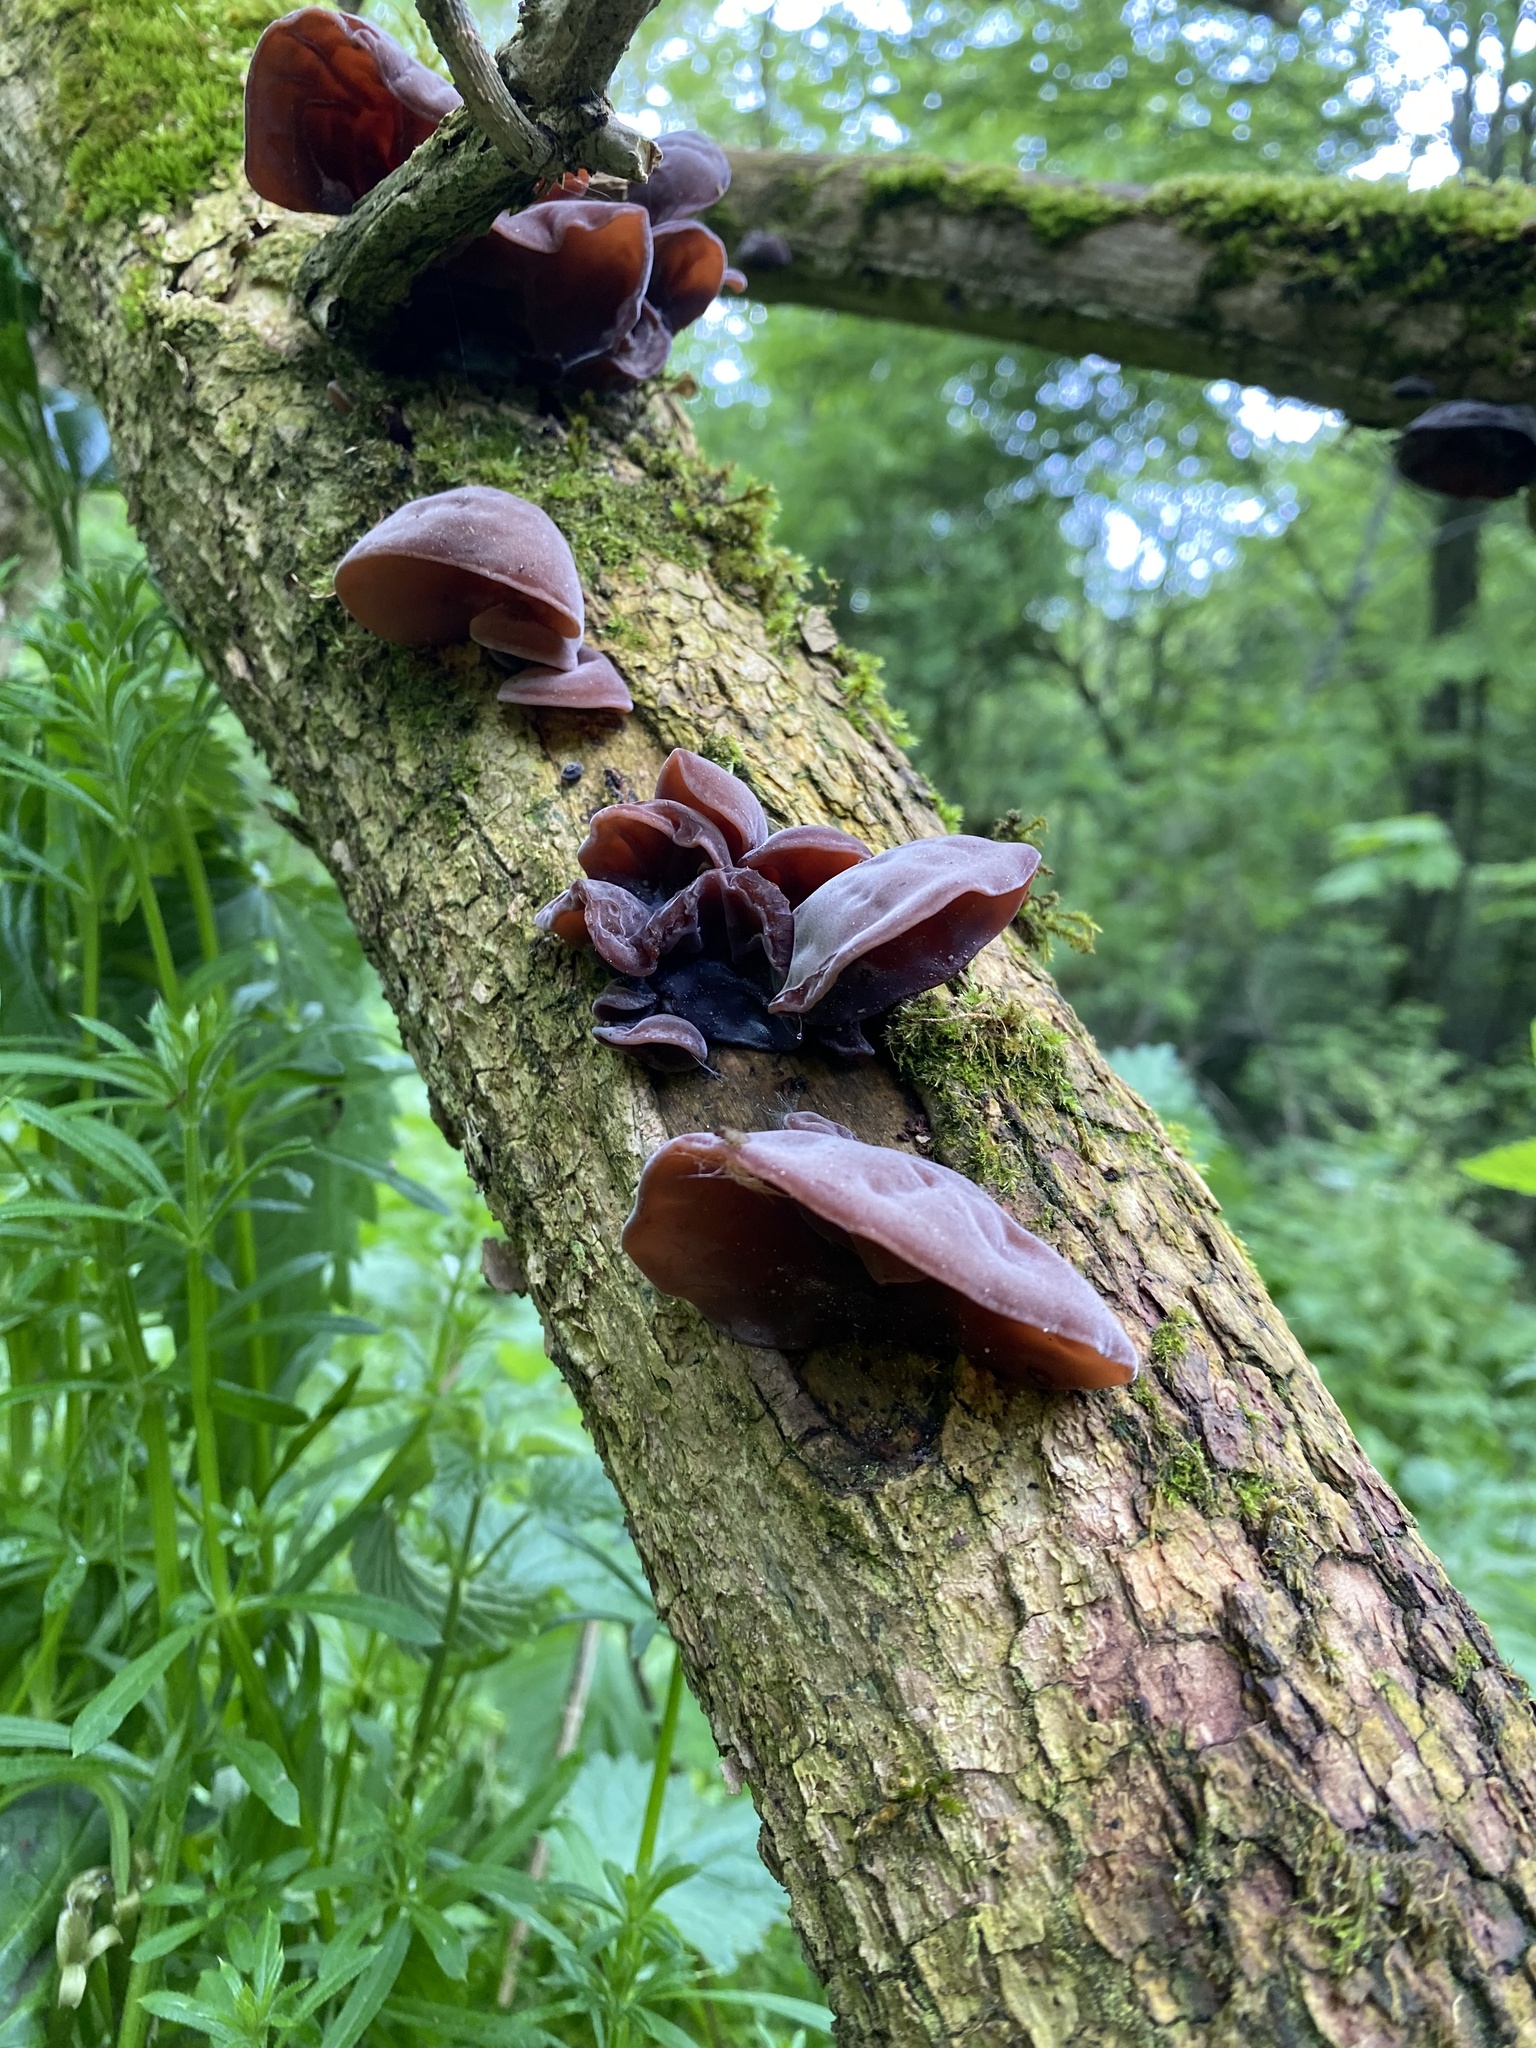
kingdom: Fungi
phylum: Basidiomycota
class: Agaricomycetes
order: Auriculariales
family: Auriculariaceae
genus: Auricularia
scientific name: Auricularia auricula-judae
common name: Jelly ear
